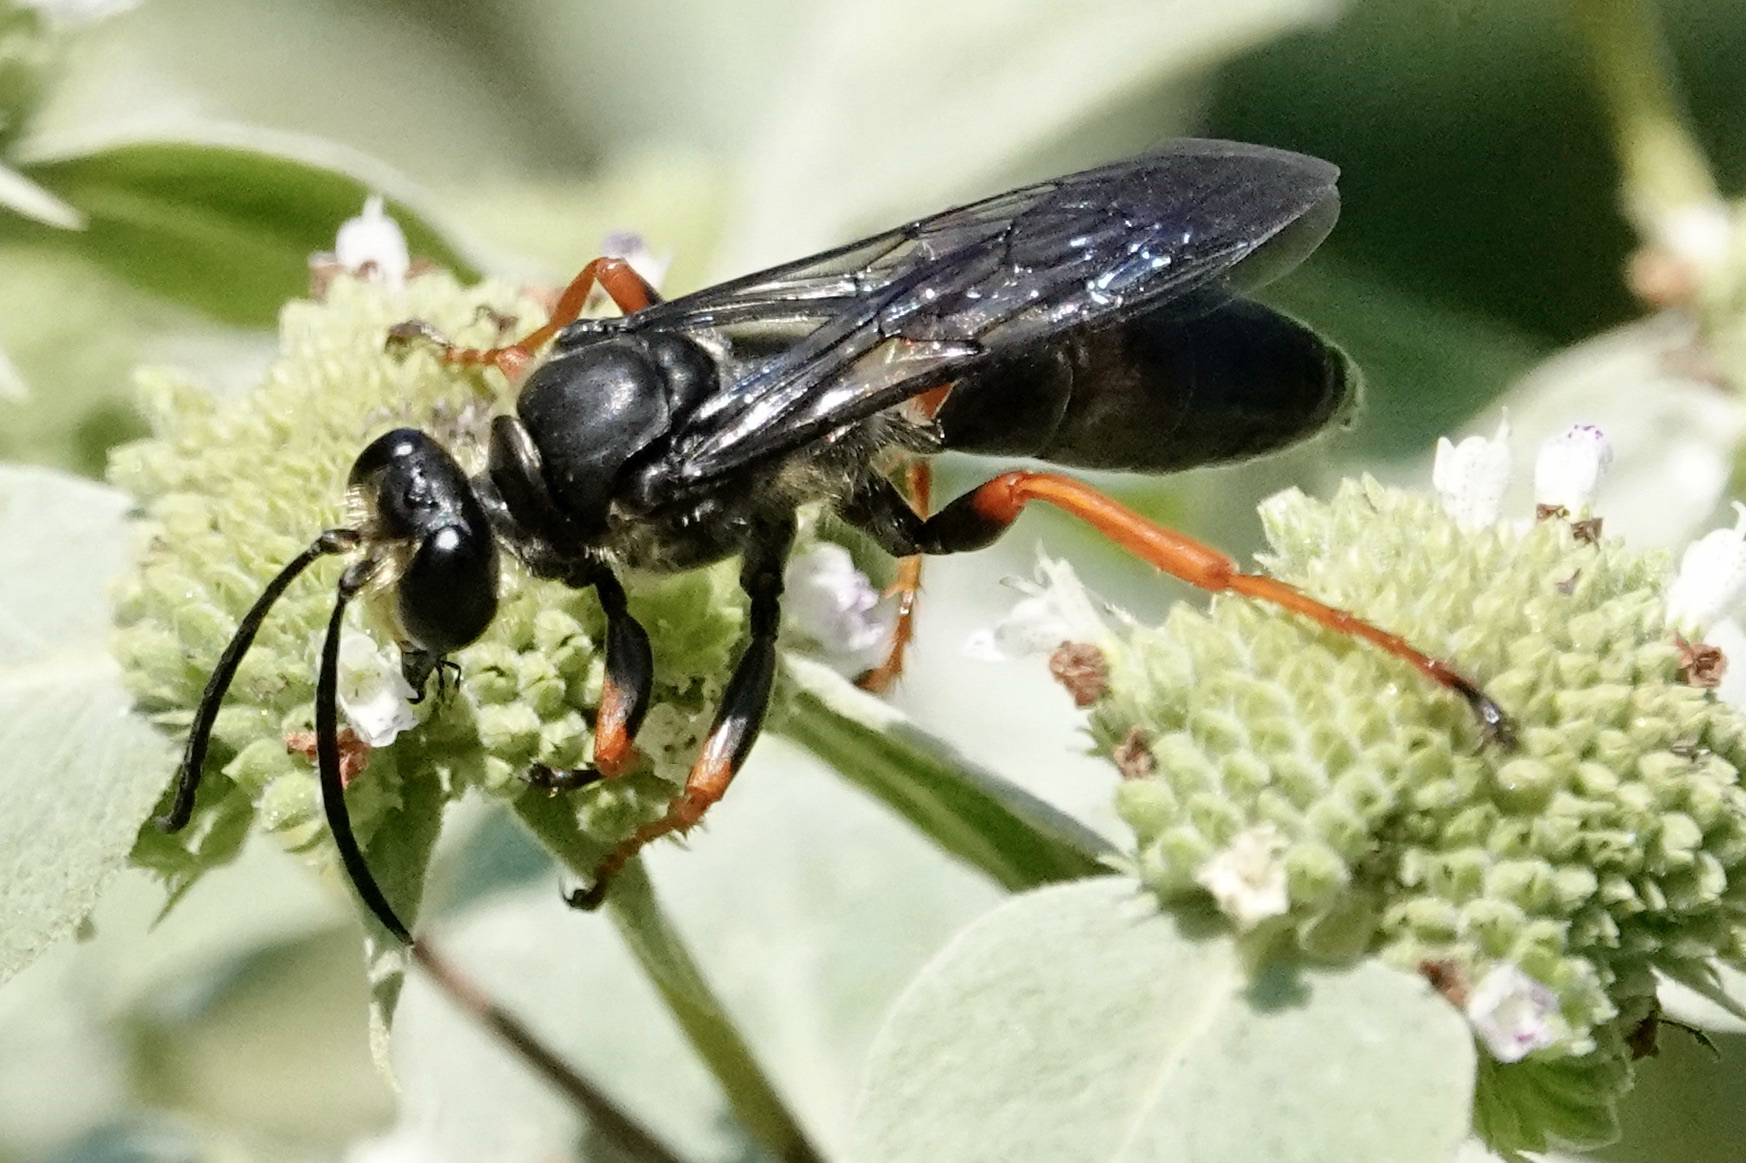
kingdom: Animalia
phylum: Arthropoda
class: Insecta
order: Hymenoptera
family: Sphecidae
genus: Sphex
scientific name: Sphex nudus
